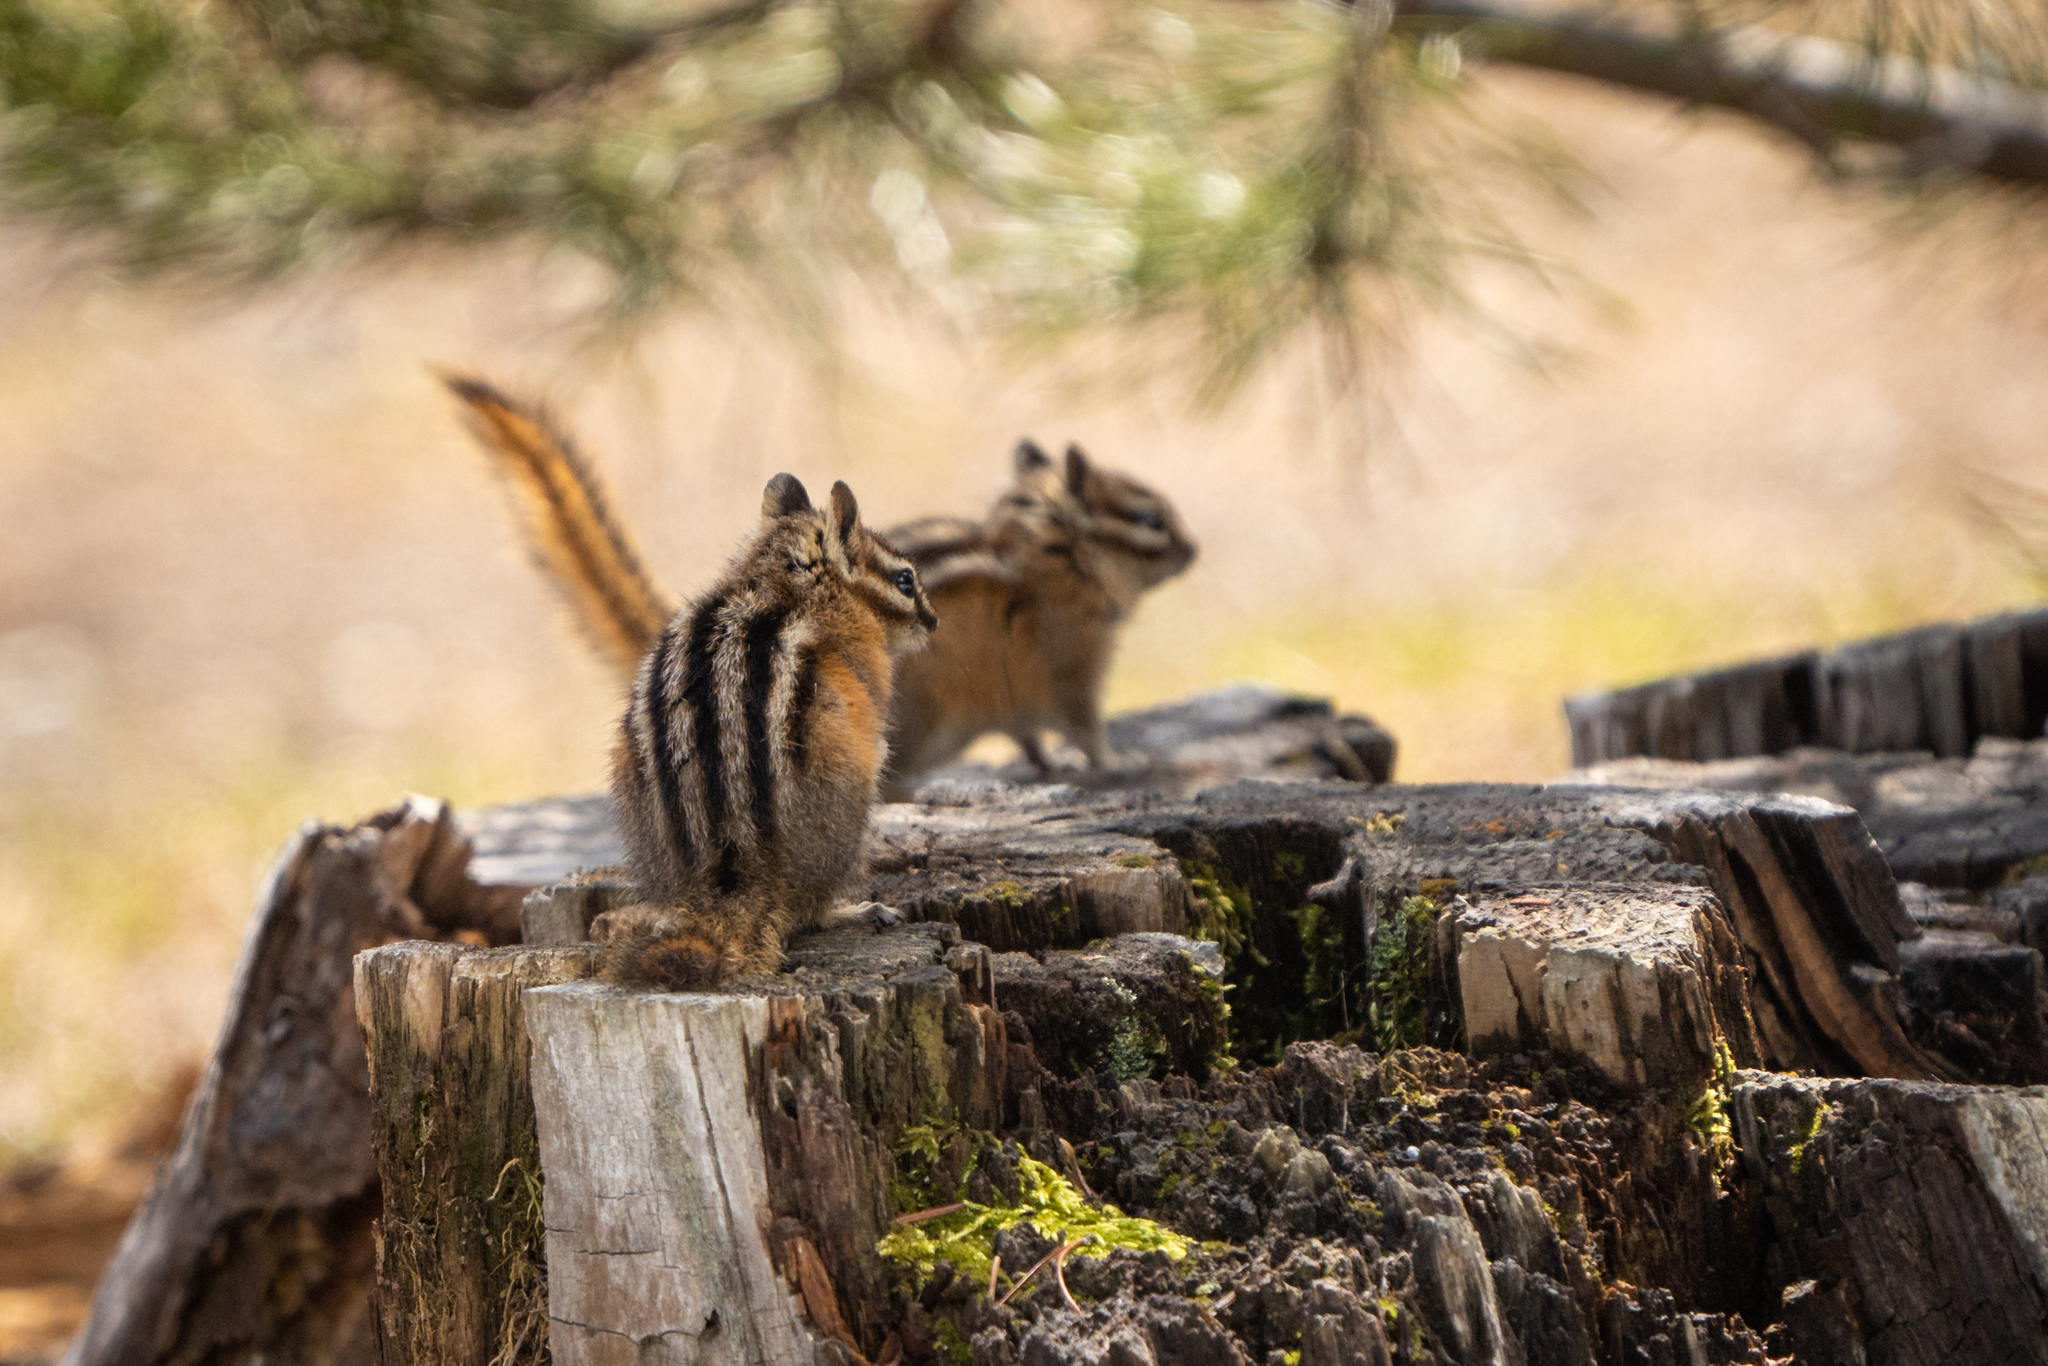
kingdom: Animalia
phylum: Chordata
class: Mammalia
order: Rodentia
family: Sciuridae
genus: Tamias
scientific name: Tamias amoenus
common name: Yellow-pine chipmunk
